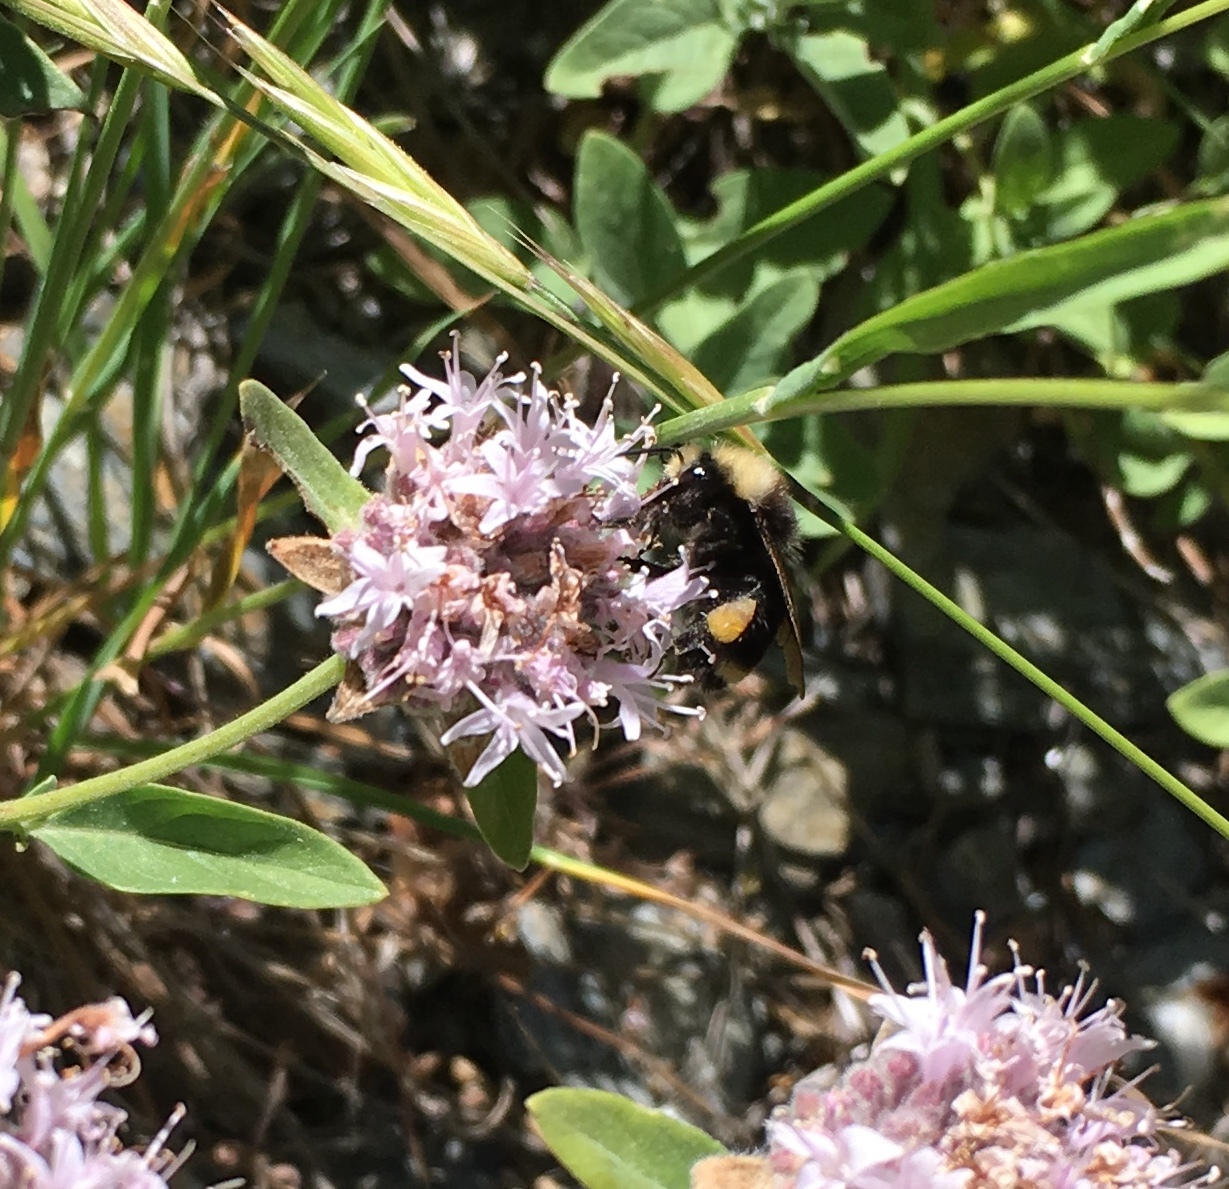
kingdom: Plantae
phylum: Tracheophyta
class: Magnoliopsida
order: Lamiales
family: Lamiaceae
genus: Monardella
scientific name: Monardella odoratissima
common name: Pacific monardella
